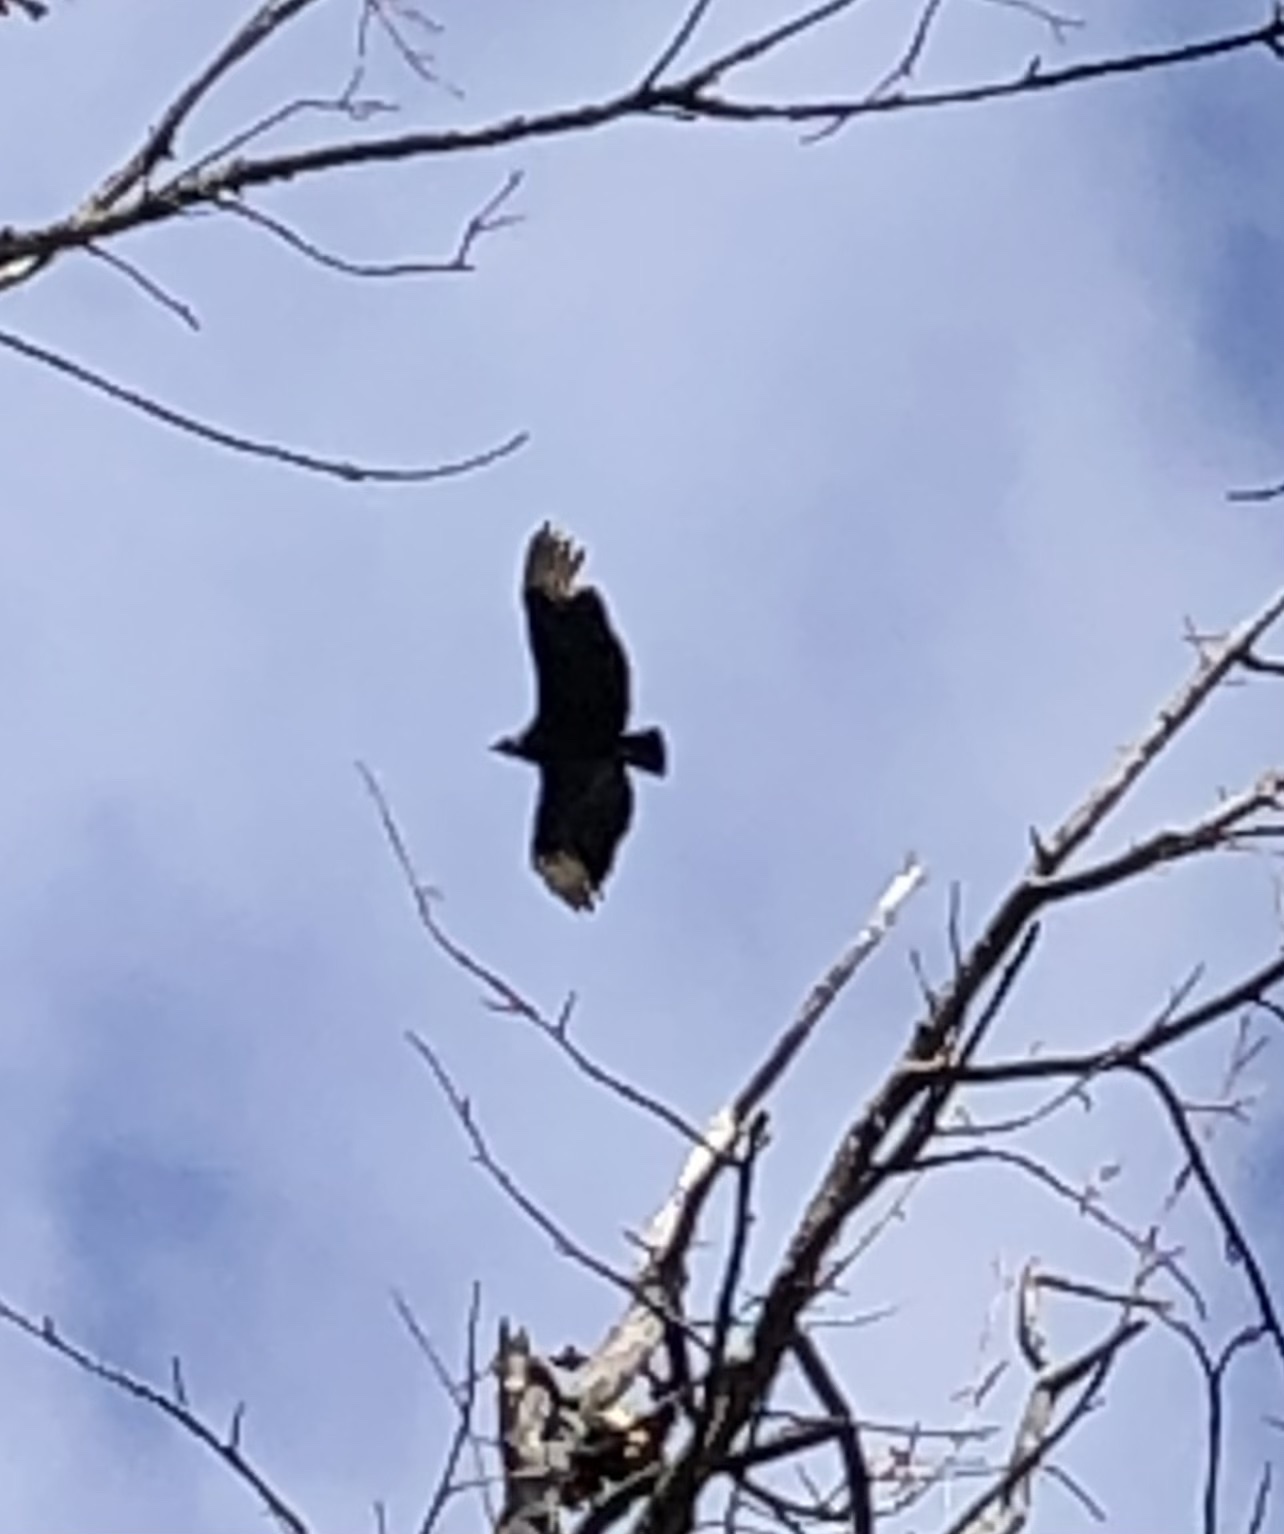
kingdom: Animalia
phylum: Chordata
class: Aves
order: Accipitriformes
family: Cathartidae
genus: Coragyps
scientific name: Coragyps atratus
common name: Black vulture
